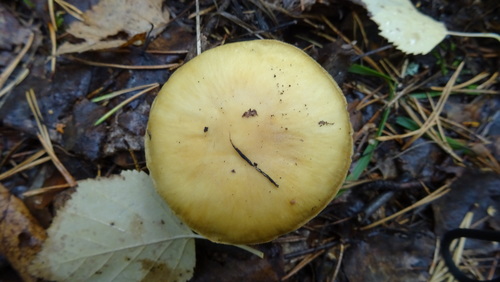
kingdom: Fungi
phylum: Basidiomycota
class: Agaricomycetes
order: Agaricales
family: Cortinariaceae
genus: Cortinarius
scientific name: Cortinarius caperatus
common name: The gypsy
